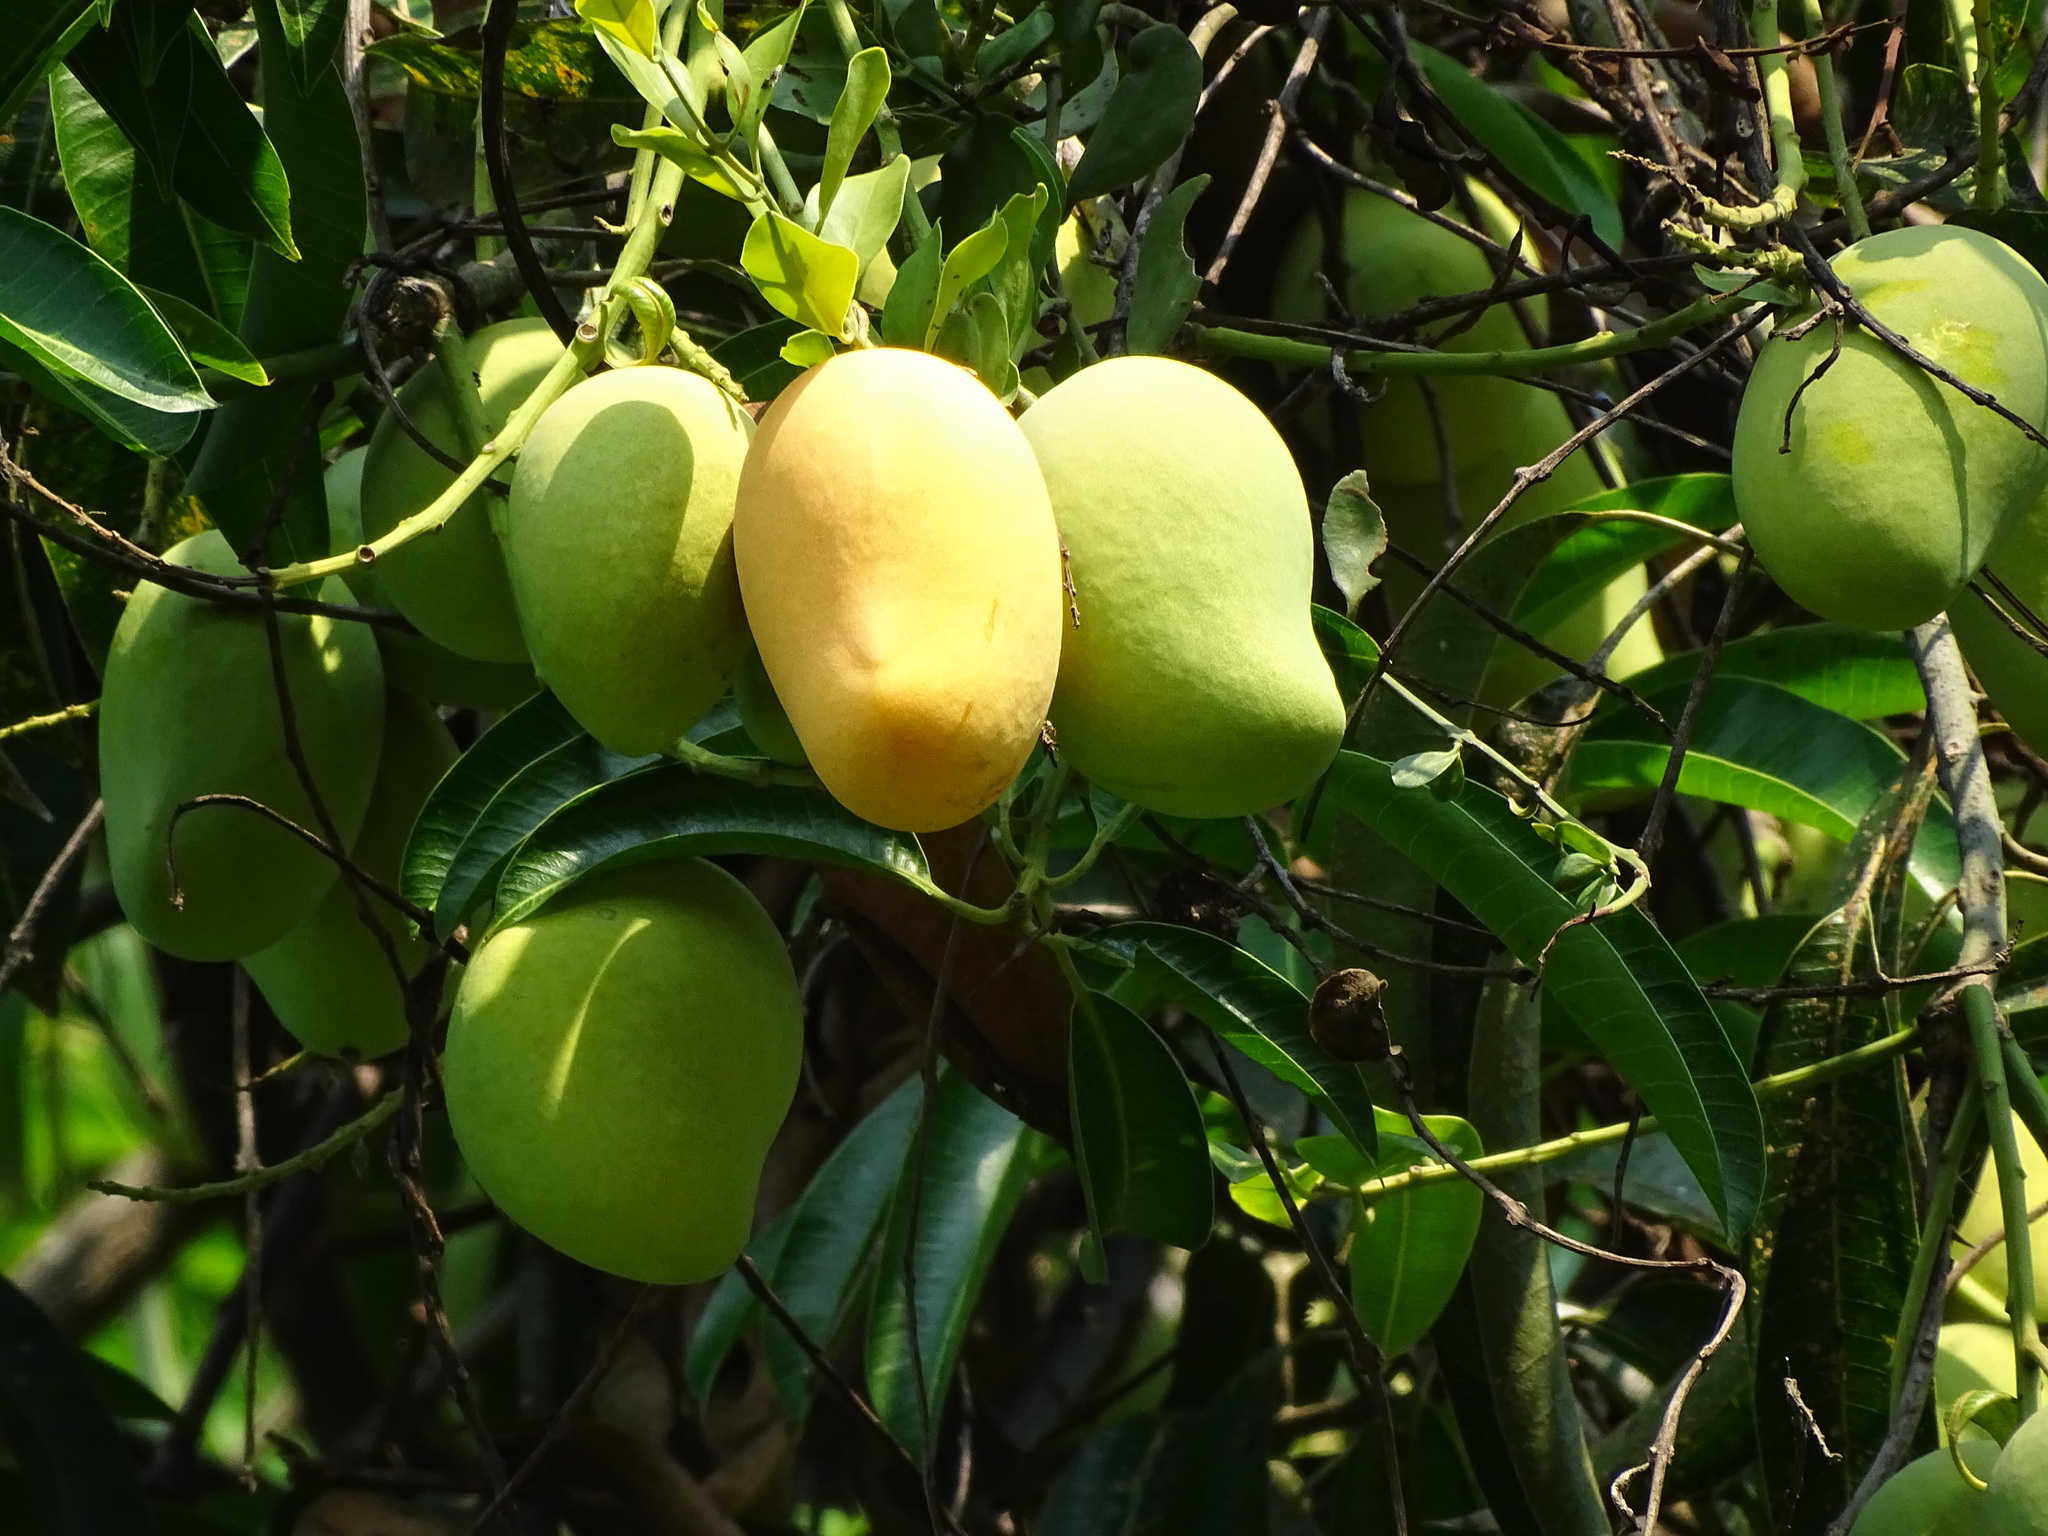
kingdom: Plantae
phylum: Tracheophyta
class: Magnoliopsida
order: Sapindales
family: Anacardiaceae
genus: Mangifera
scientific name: Mangifera indica
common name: Mango
